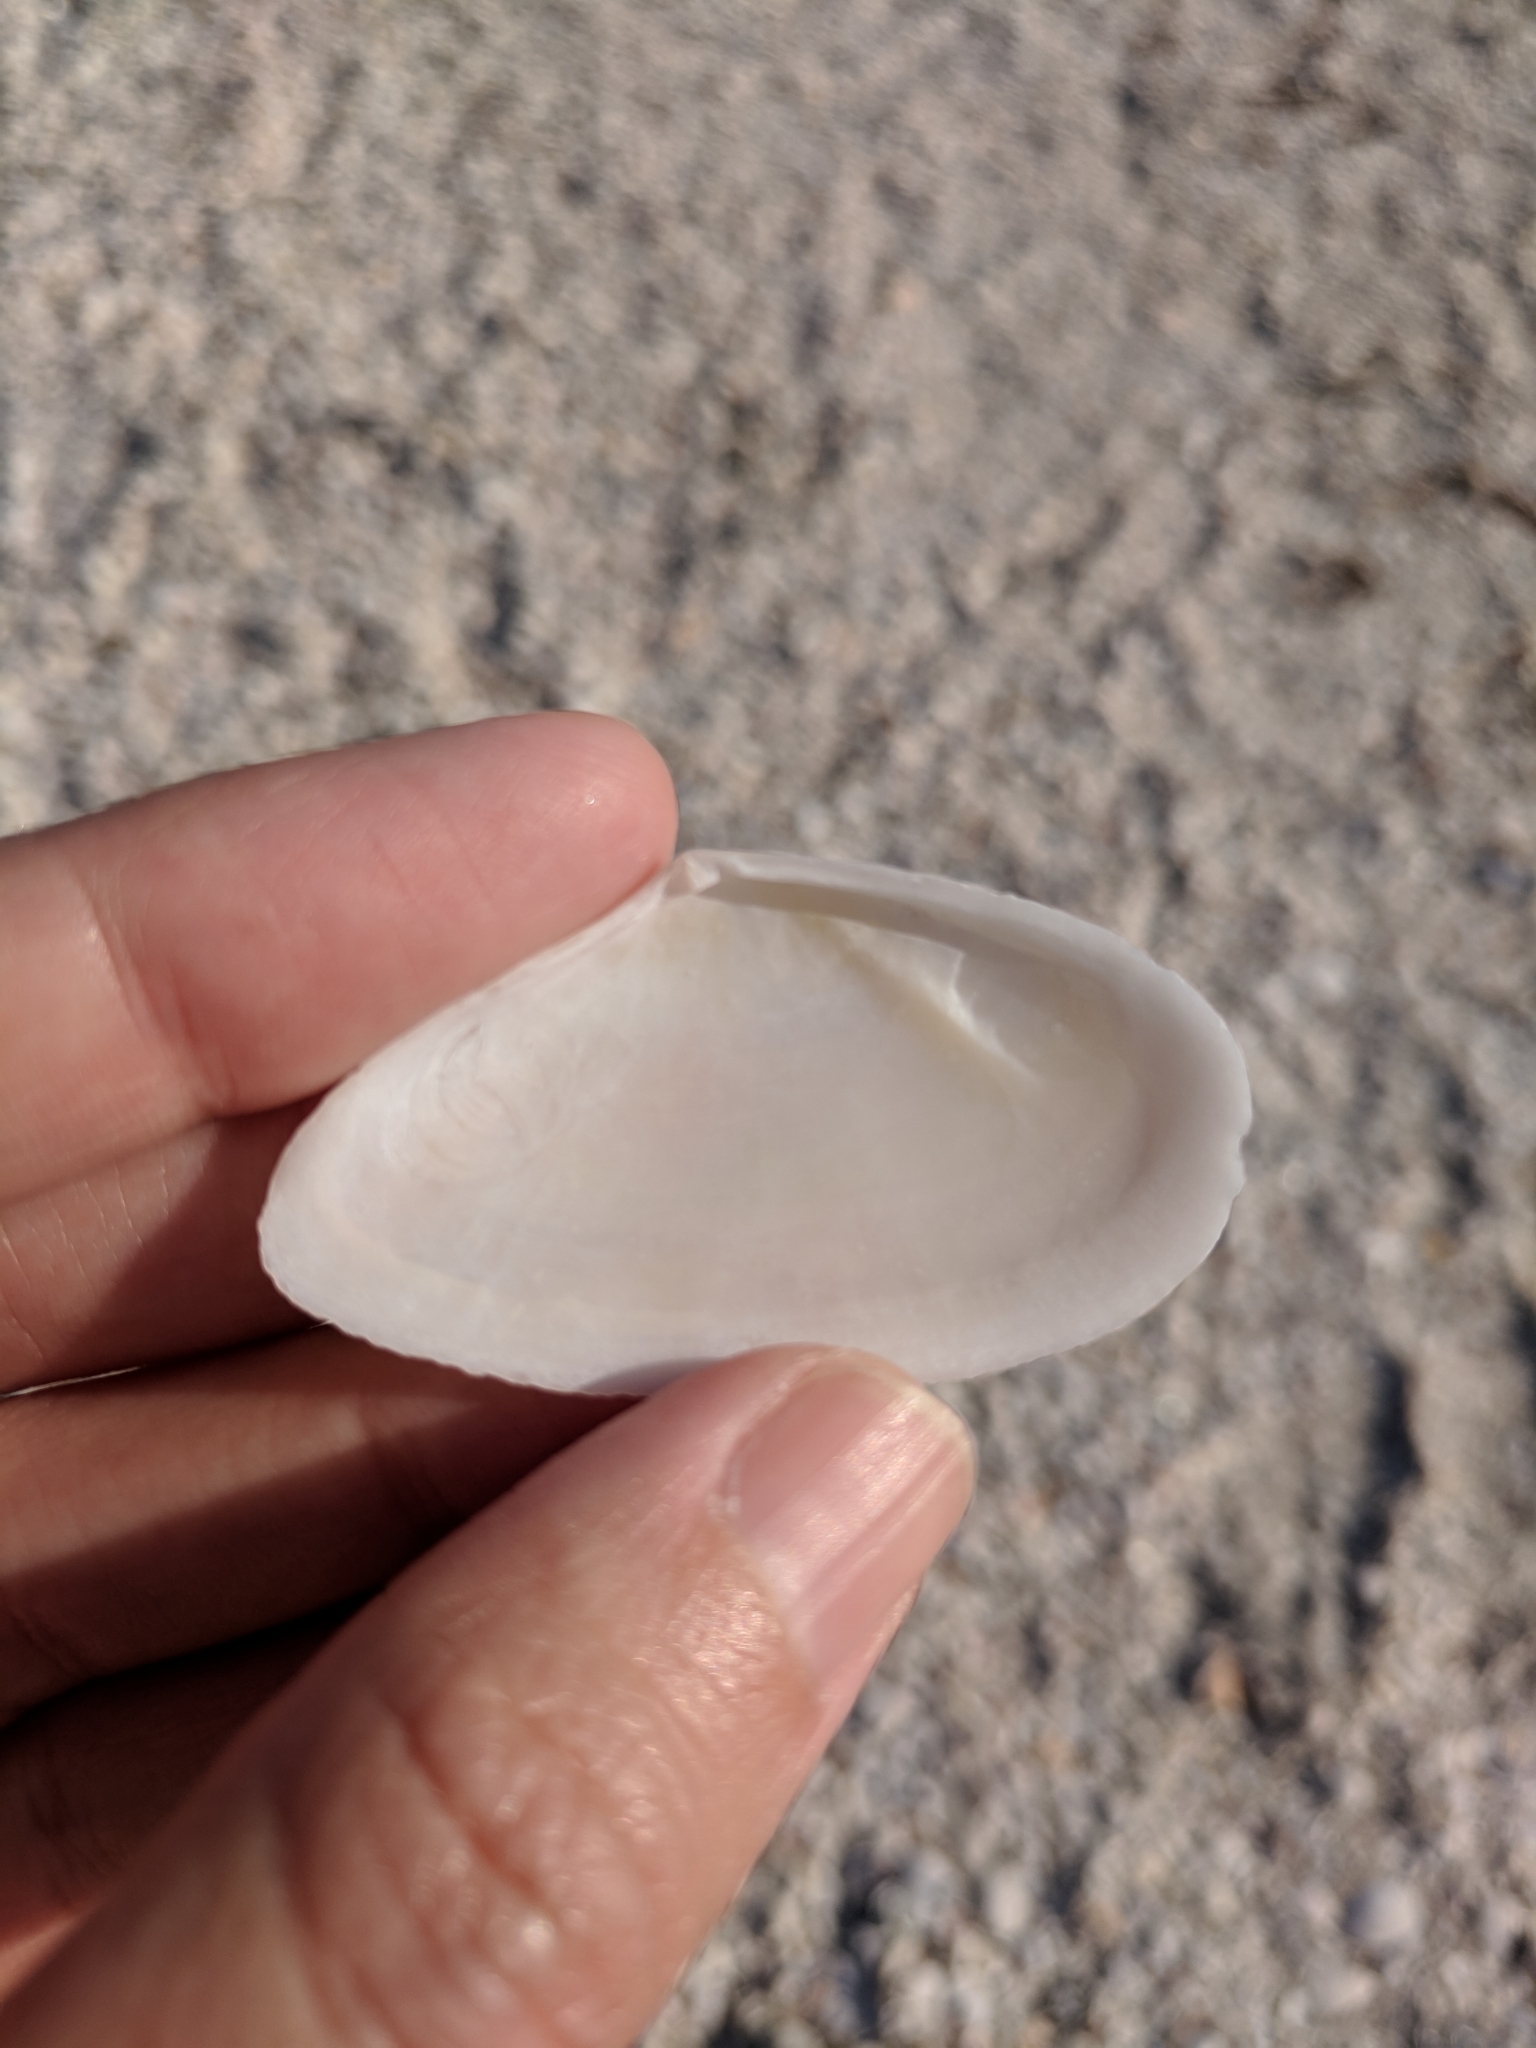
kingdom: Animalia
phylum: Mollusca
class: Bivalvia
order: Cardiida
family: Tellinidae
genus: Eurytellina
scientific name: Eurytellina alternata
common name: Alternate tellin
